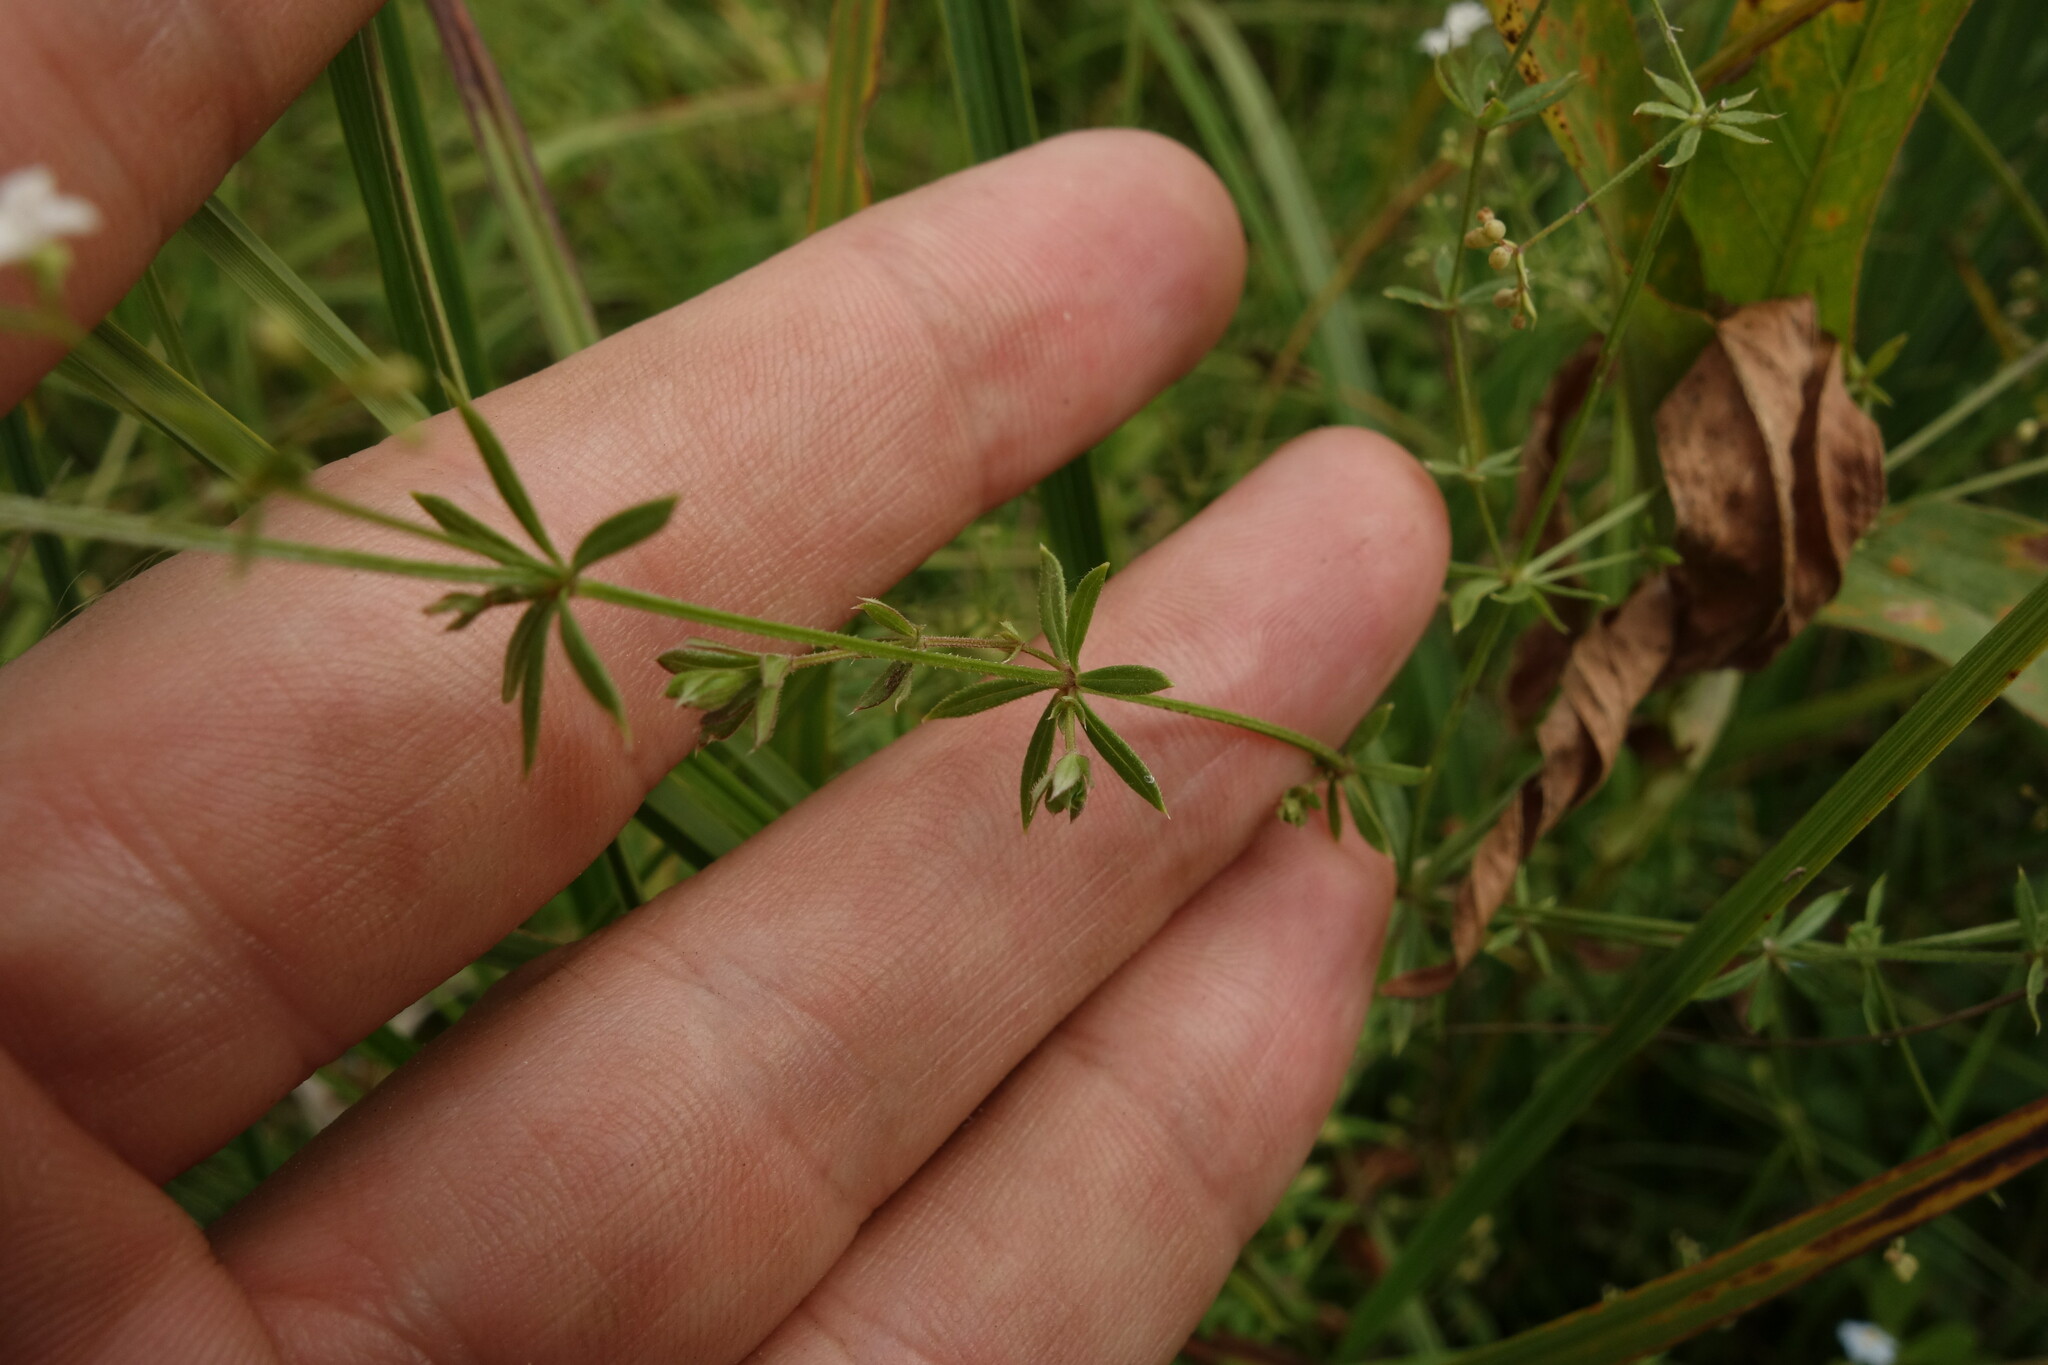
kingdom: Plantae
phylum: Tracheophyta
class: Magnoliopsida
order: Gentianales
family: Rubiaceae
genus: Galium
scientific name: Galium uliginosum
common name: Fen bedstraw
